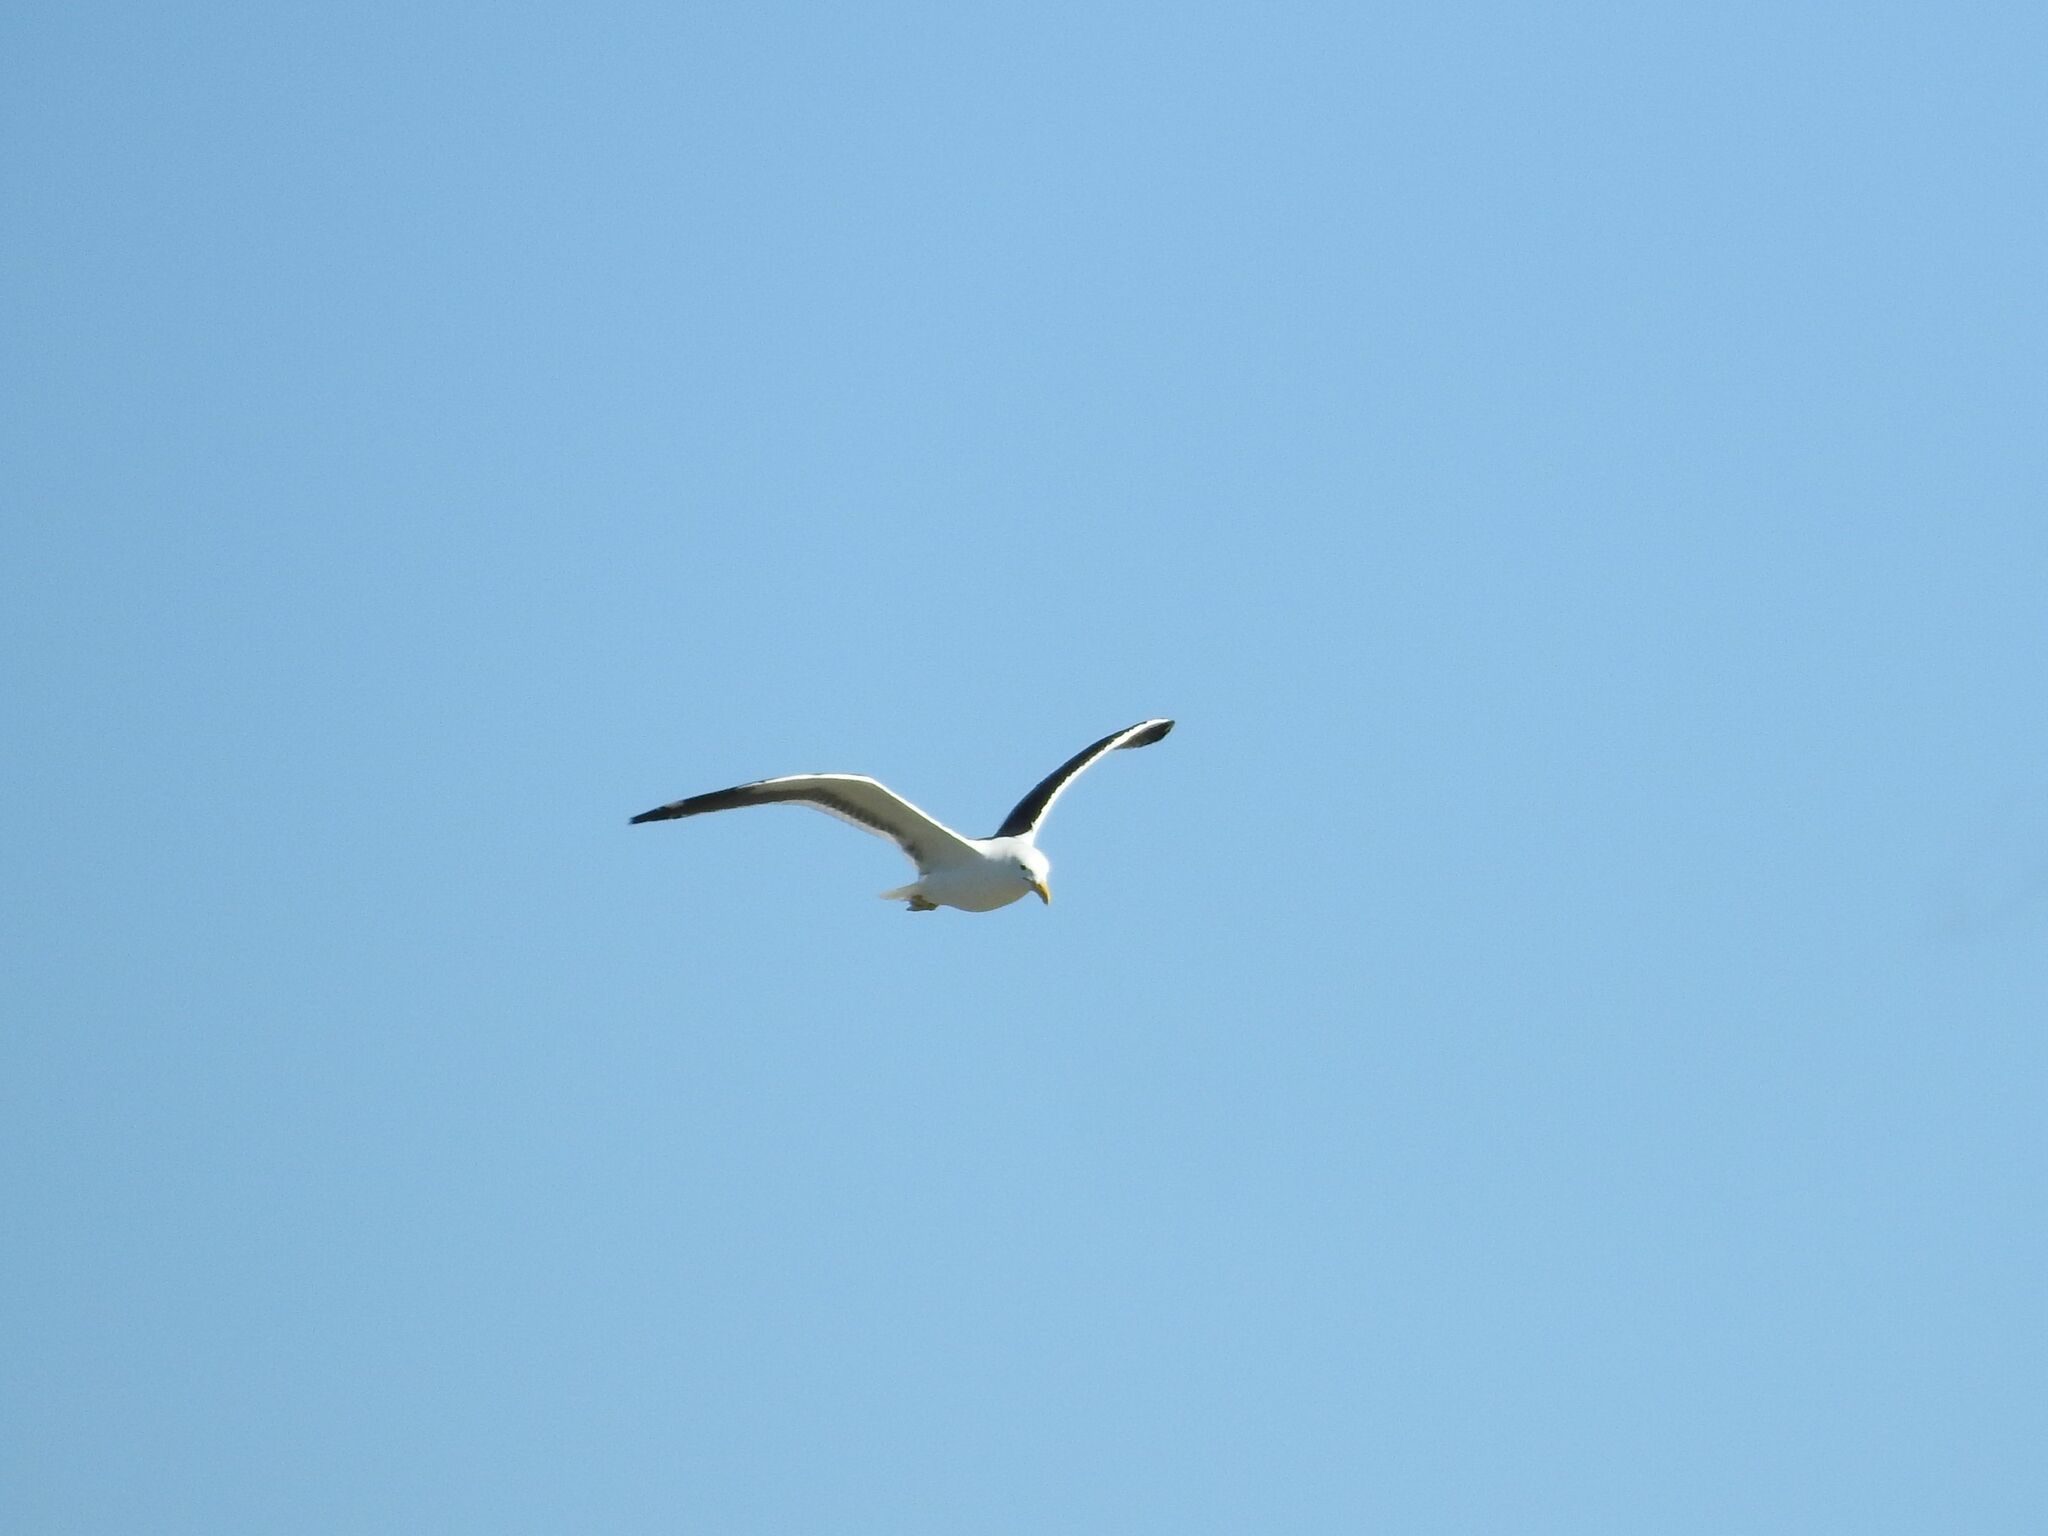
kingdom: Animalia
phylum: Chordata
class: Aves
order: Charadriiformes
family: Laridae
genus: Larus
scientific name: Larus dominicanus
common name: Kelp gull
